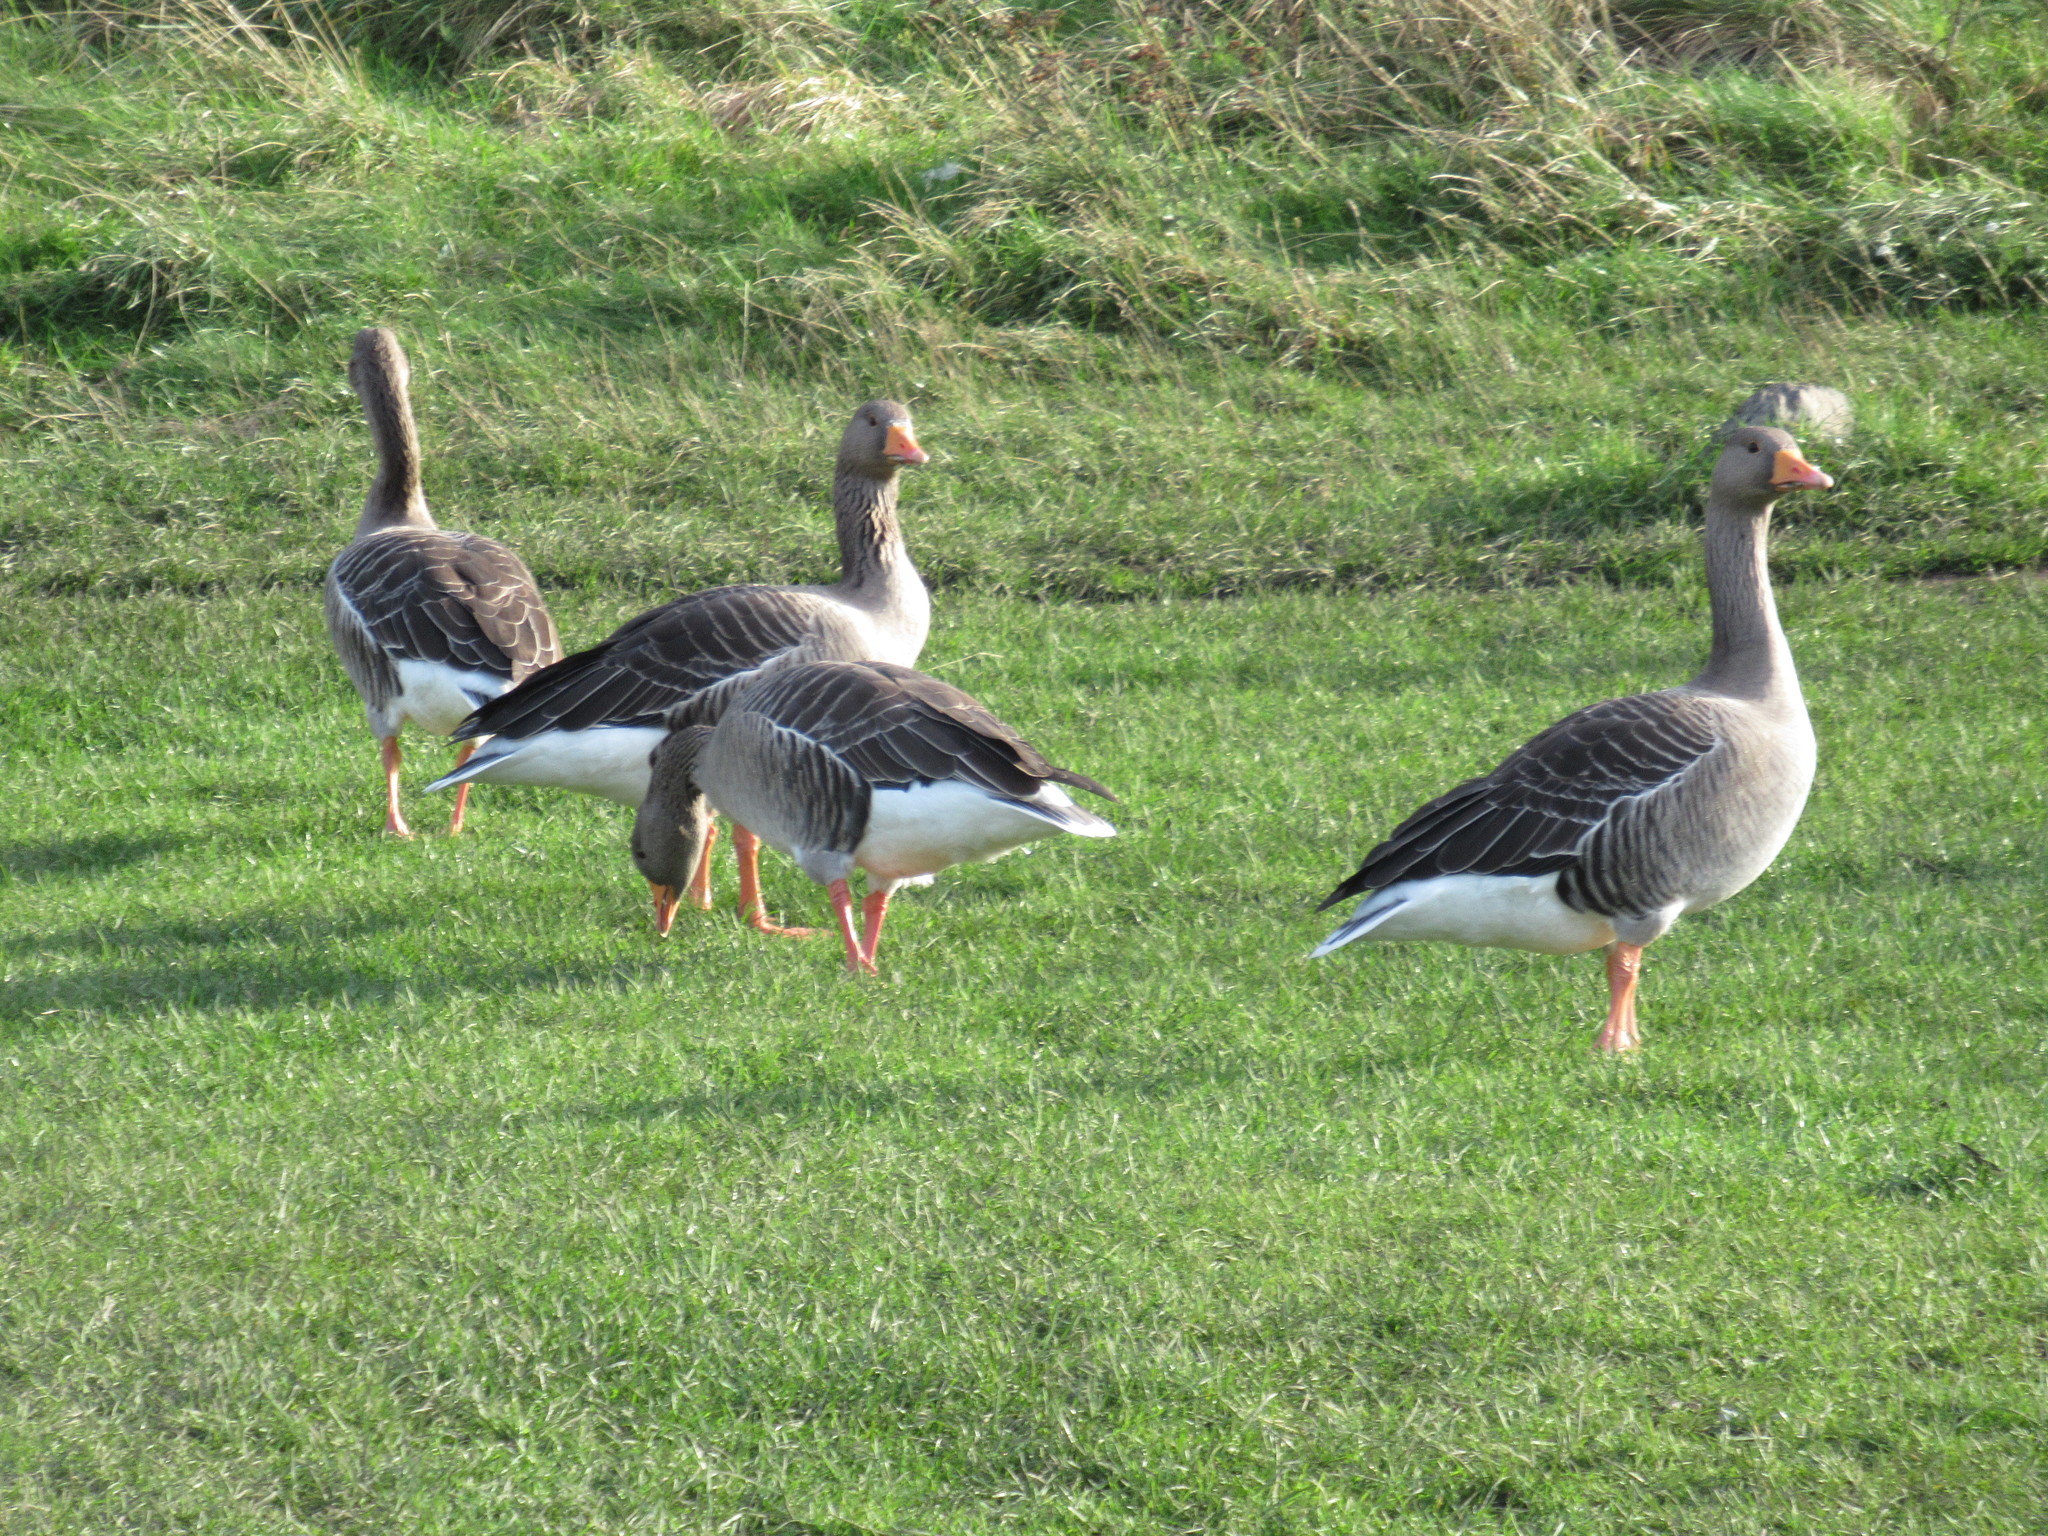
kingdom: Animalia
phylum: Chordata
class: Aves
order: Anseriformes
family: Anatidae
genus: Anser
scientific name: Anser anser
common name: Greylag goose
